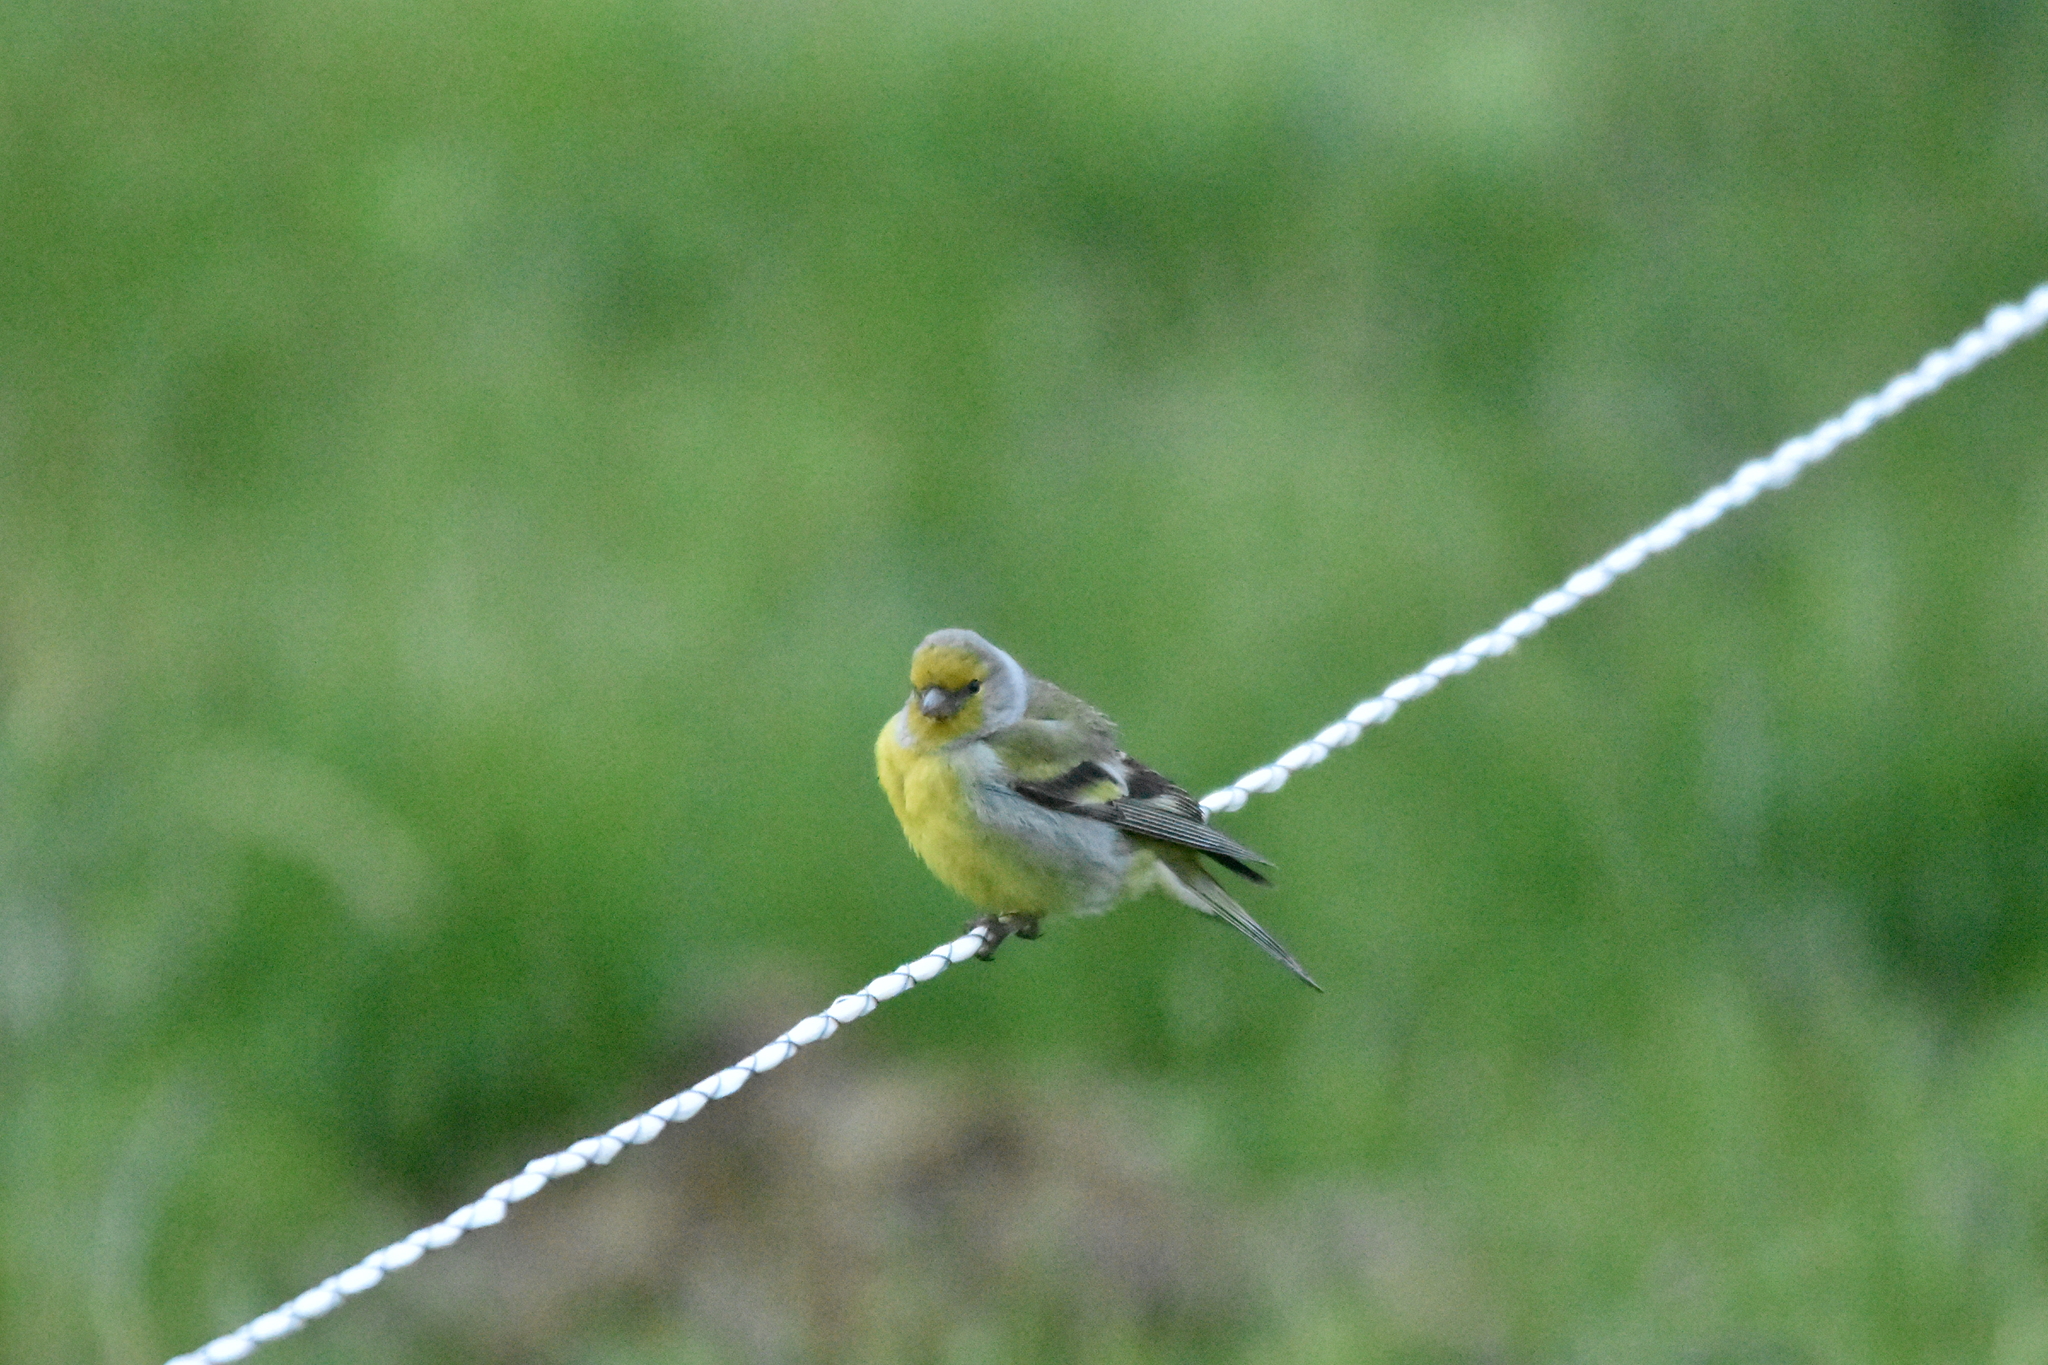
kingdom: Animalia
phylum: Chordata
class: Aves
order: Passeriformes
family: Fringillidae
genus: Carduelis
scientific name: Carduelis citrinella
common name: Citril finch
